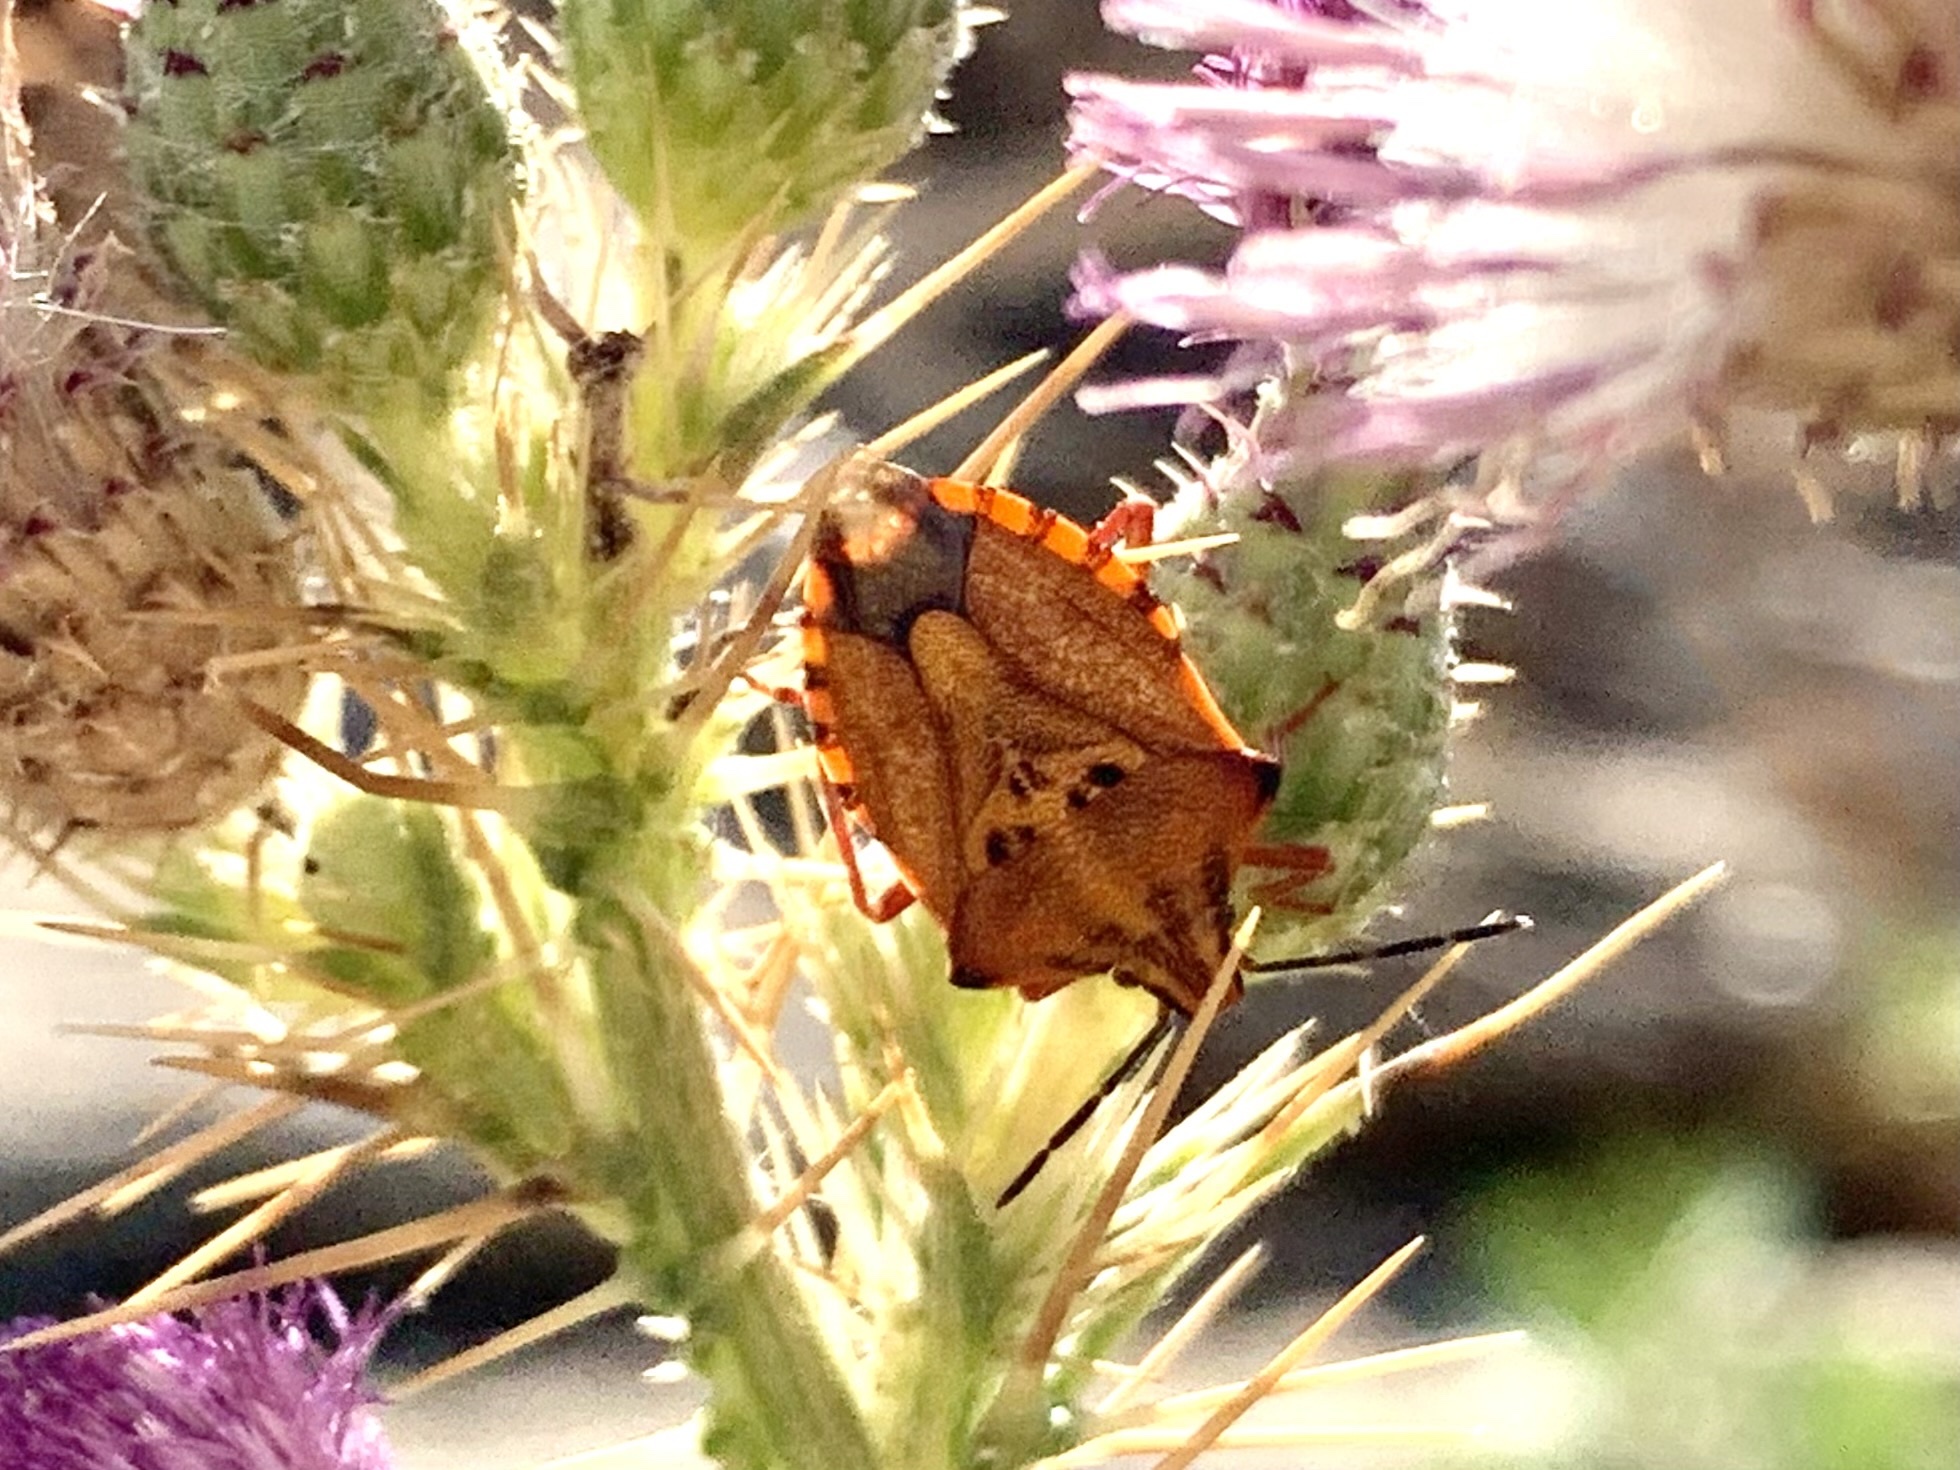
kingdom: Animalia
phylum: Arthropoda
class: Insecta
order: Hemiptera
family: Pentatomidae
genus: Carpocoris
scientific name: Carpocoris mediterraneus
